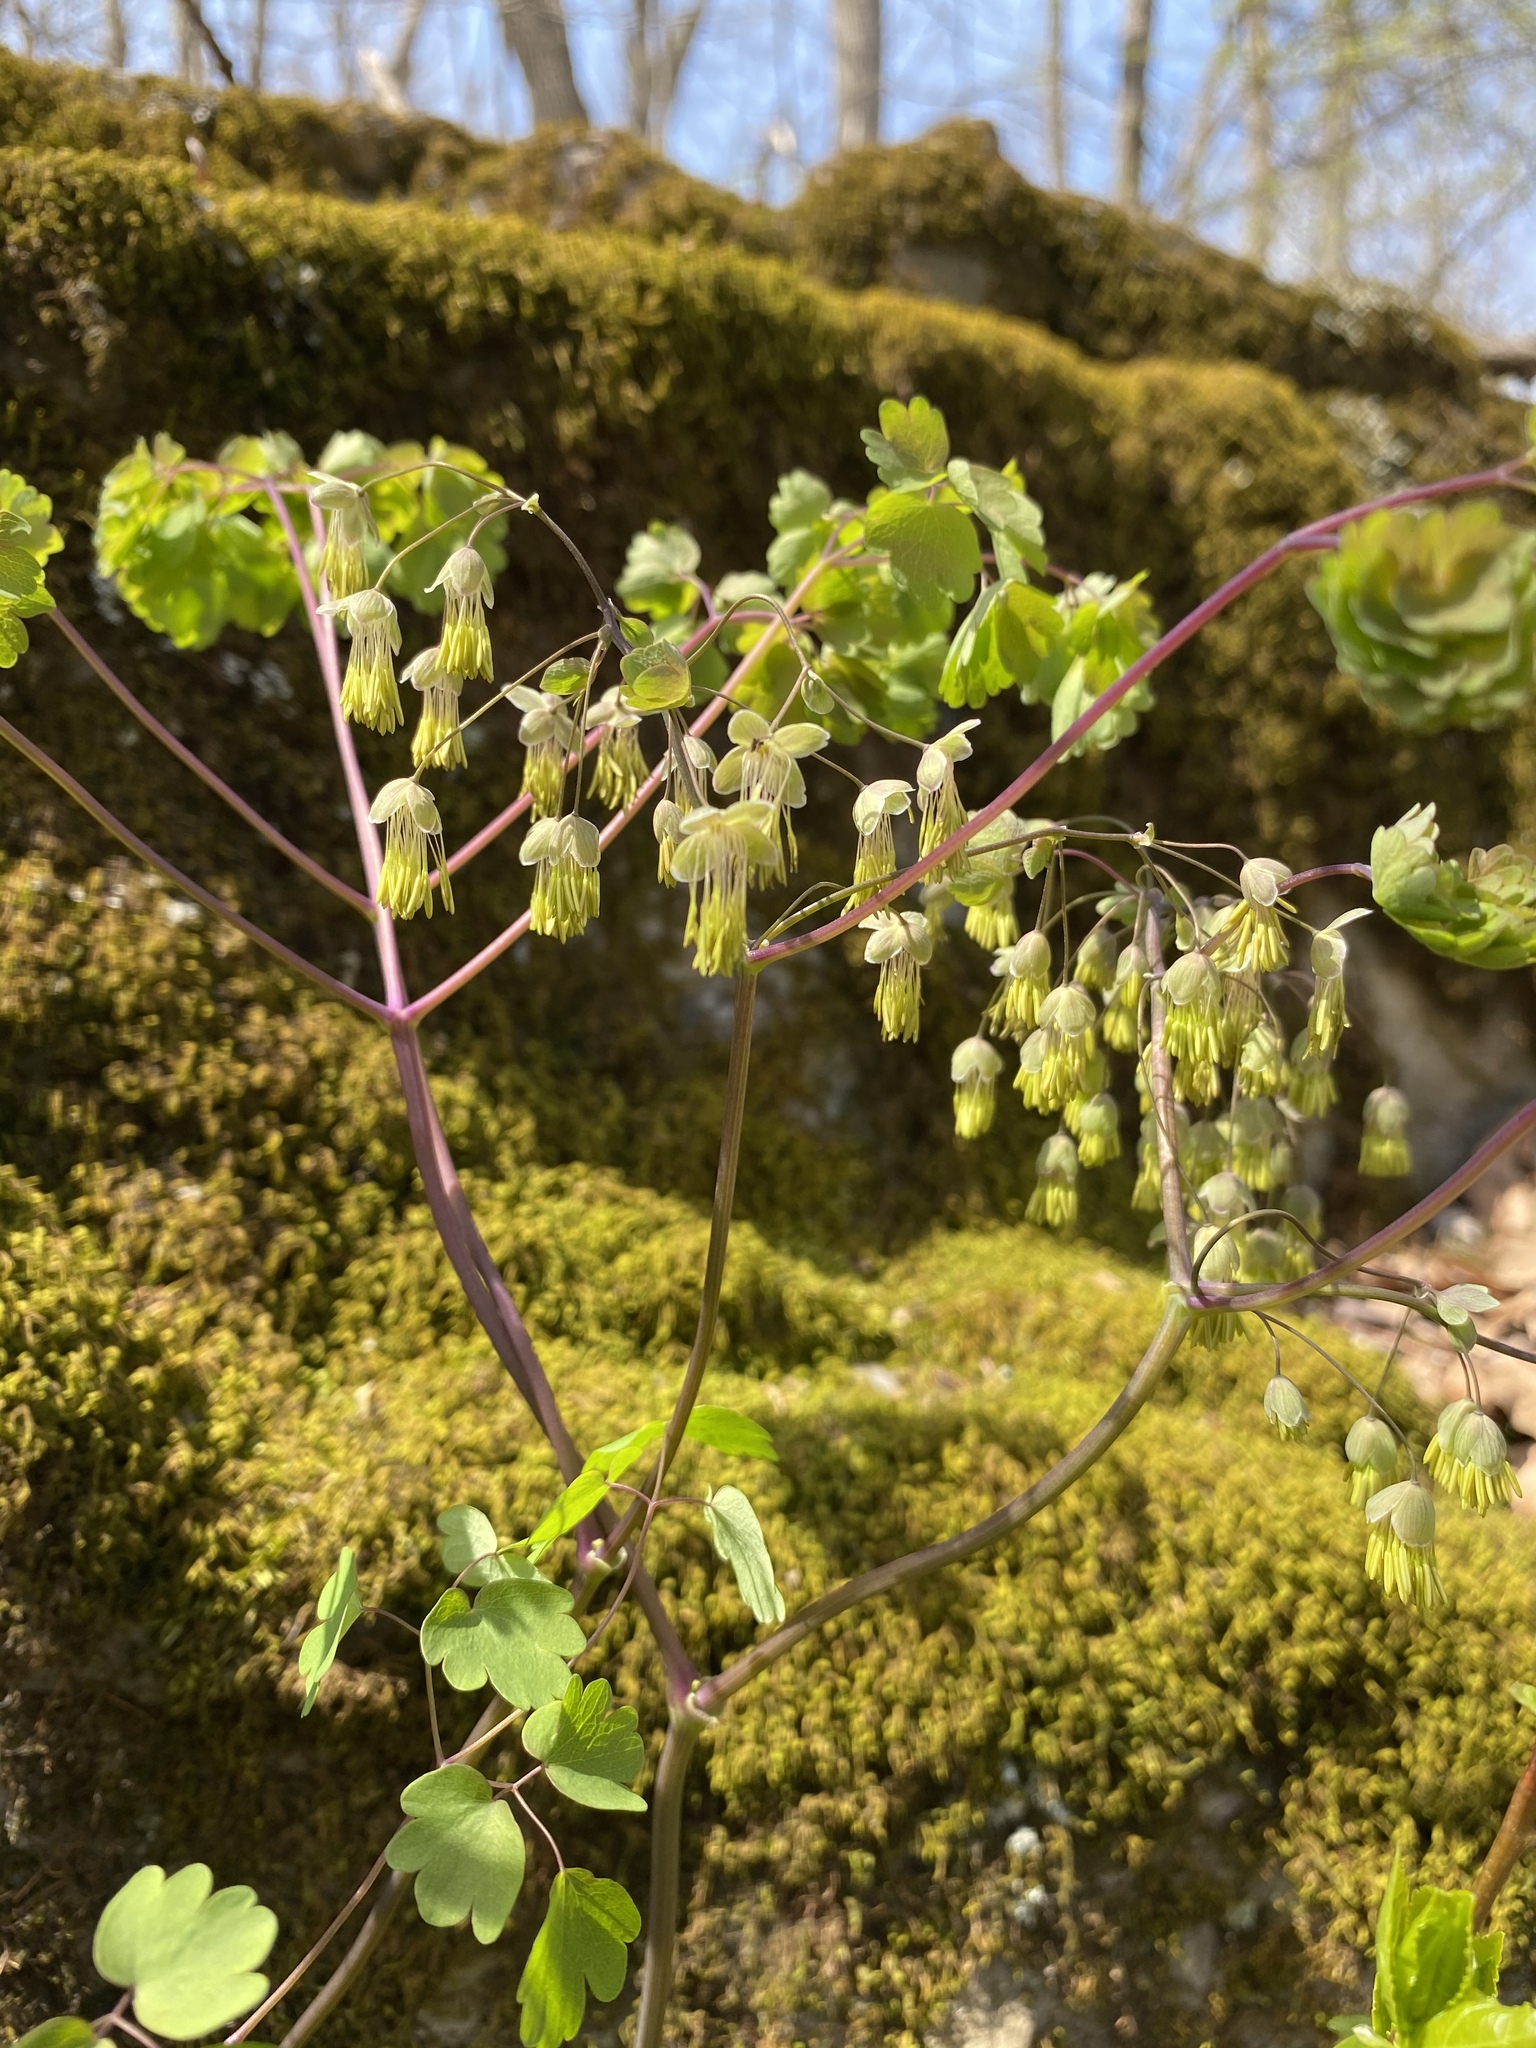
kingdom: Plantae
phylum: Tracheophyta
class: Magnoliopsida
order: Ranunculales
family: Ranunculaceae
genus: Thalictrum
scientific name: Thalictrum dioicum
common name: Early meadow-rue
